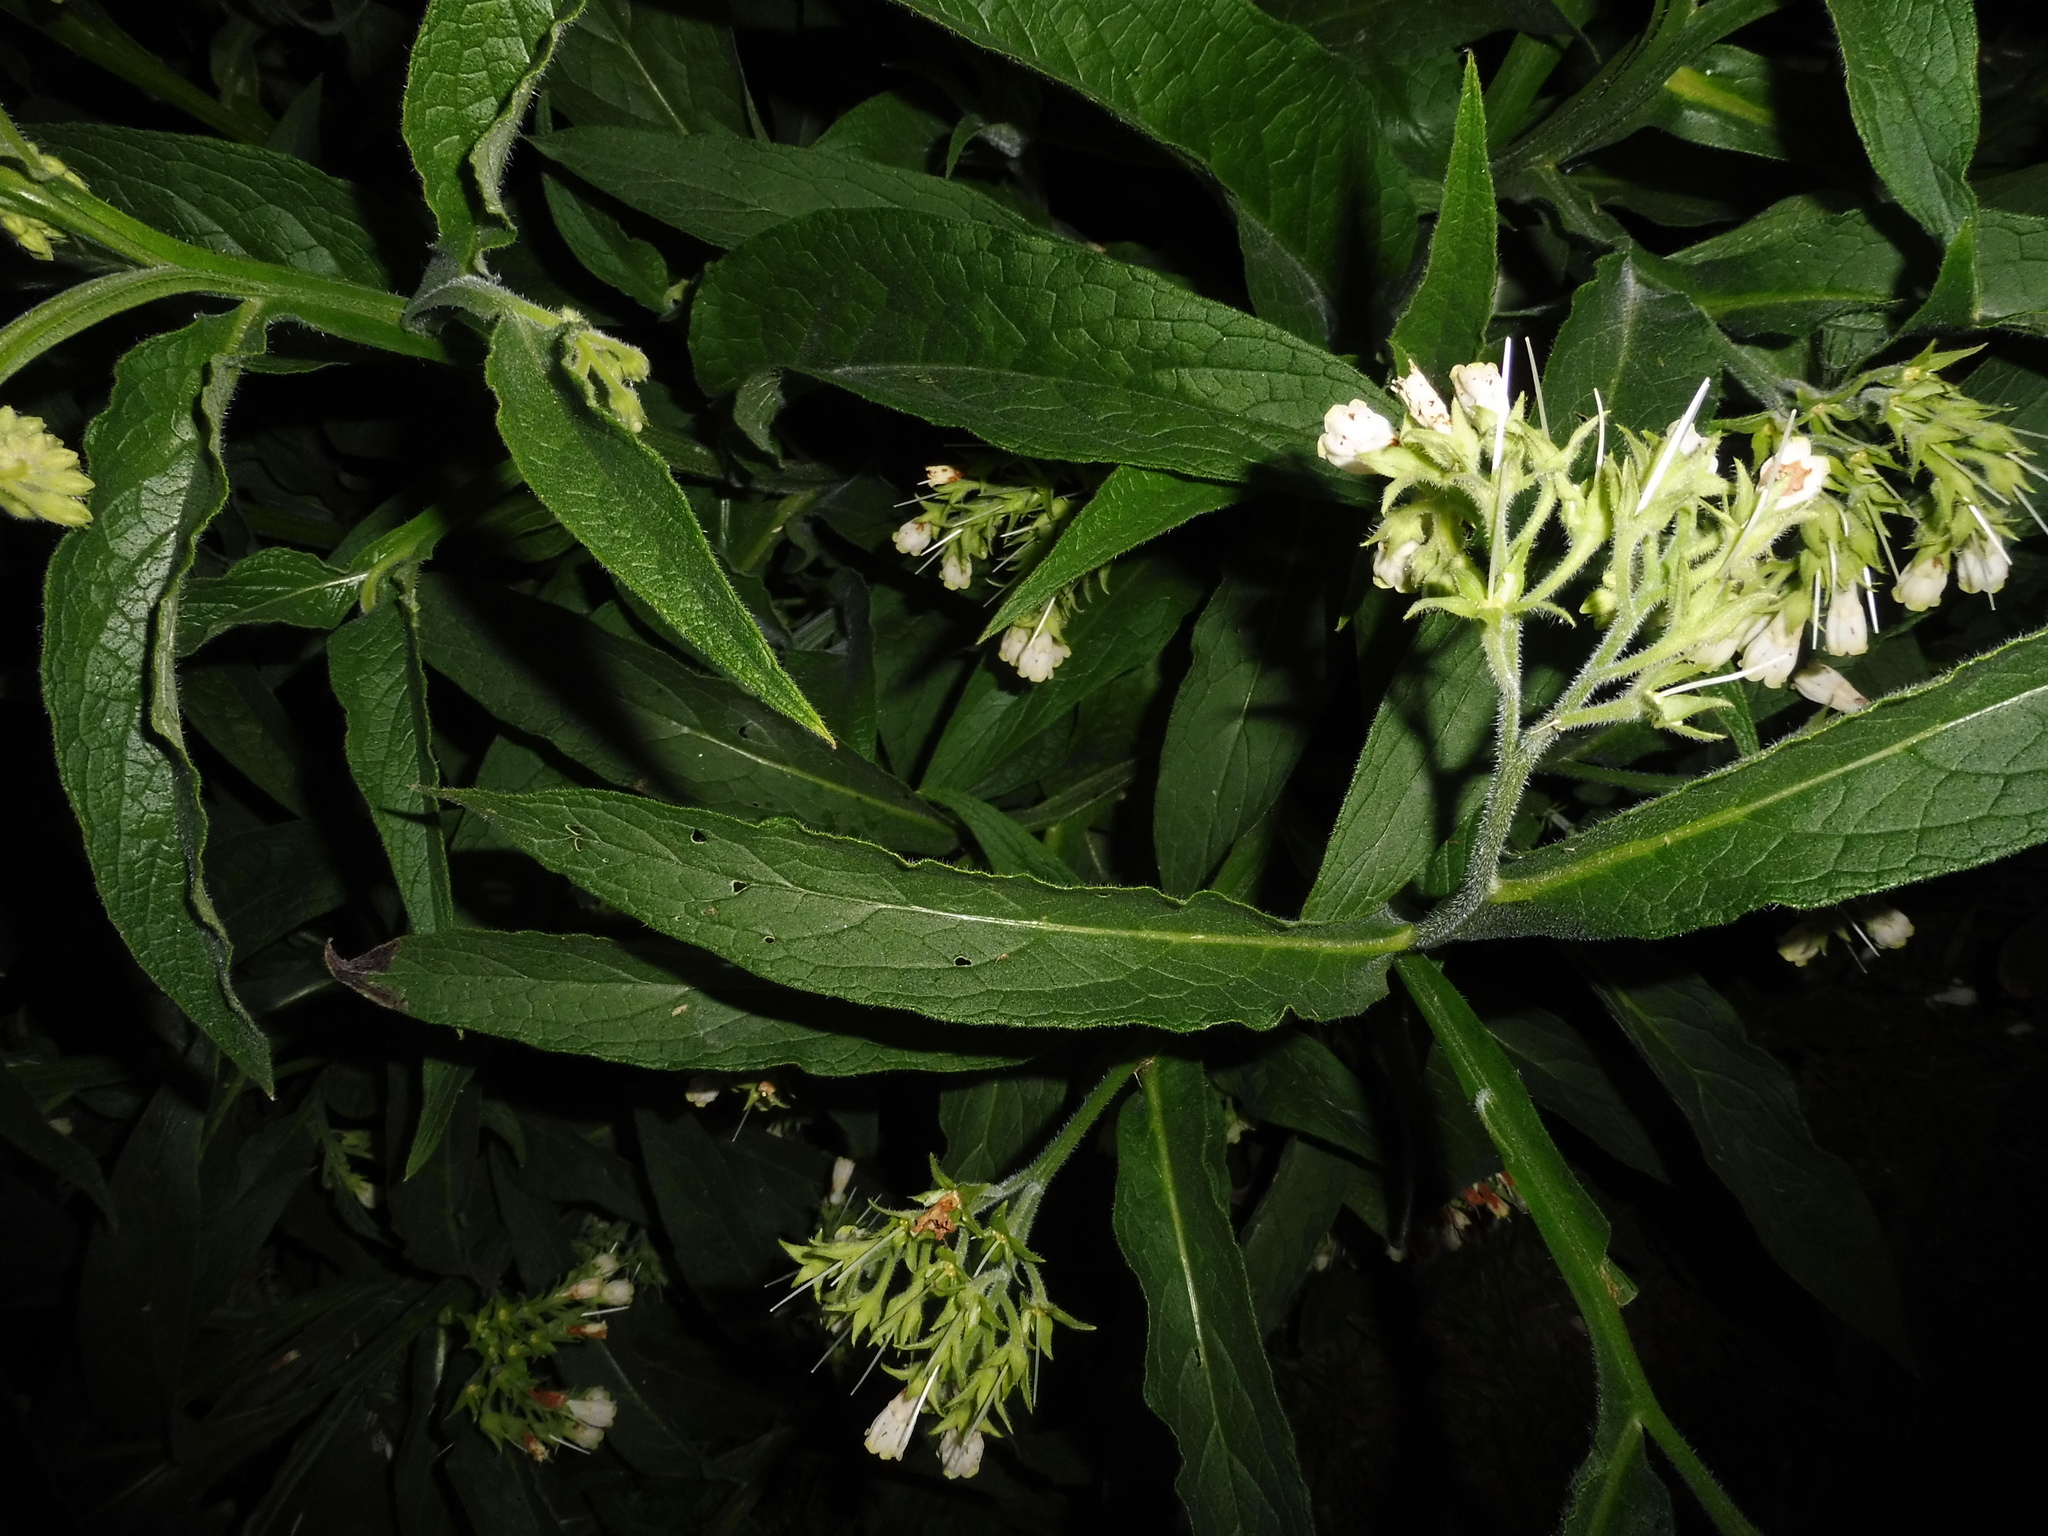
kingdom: Plantae
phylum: Tracheophyta
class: Magnoliopsida
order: Boraginales
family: Boraginaceae
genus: Symphytum
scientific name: Symphytum bohemicum
